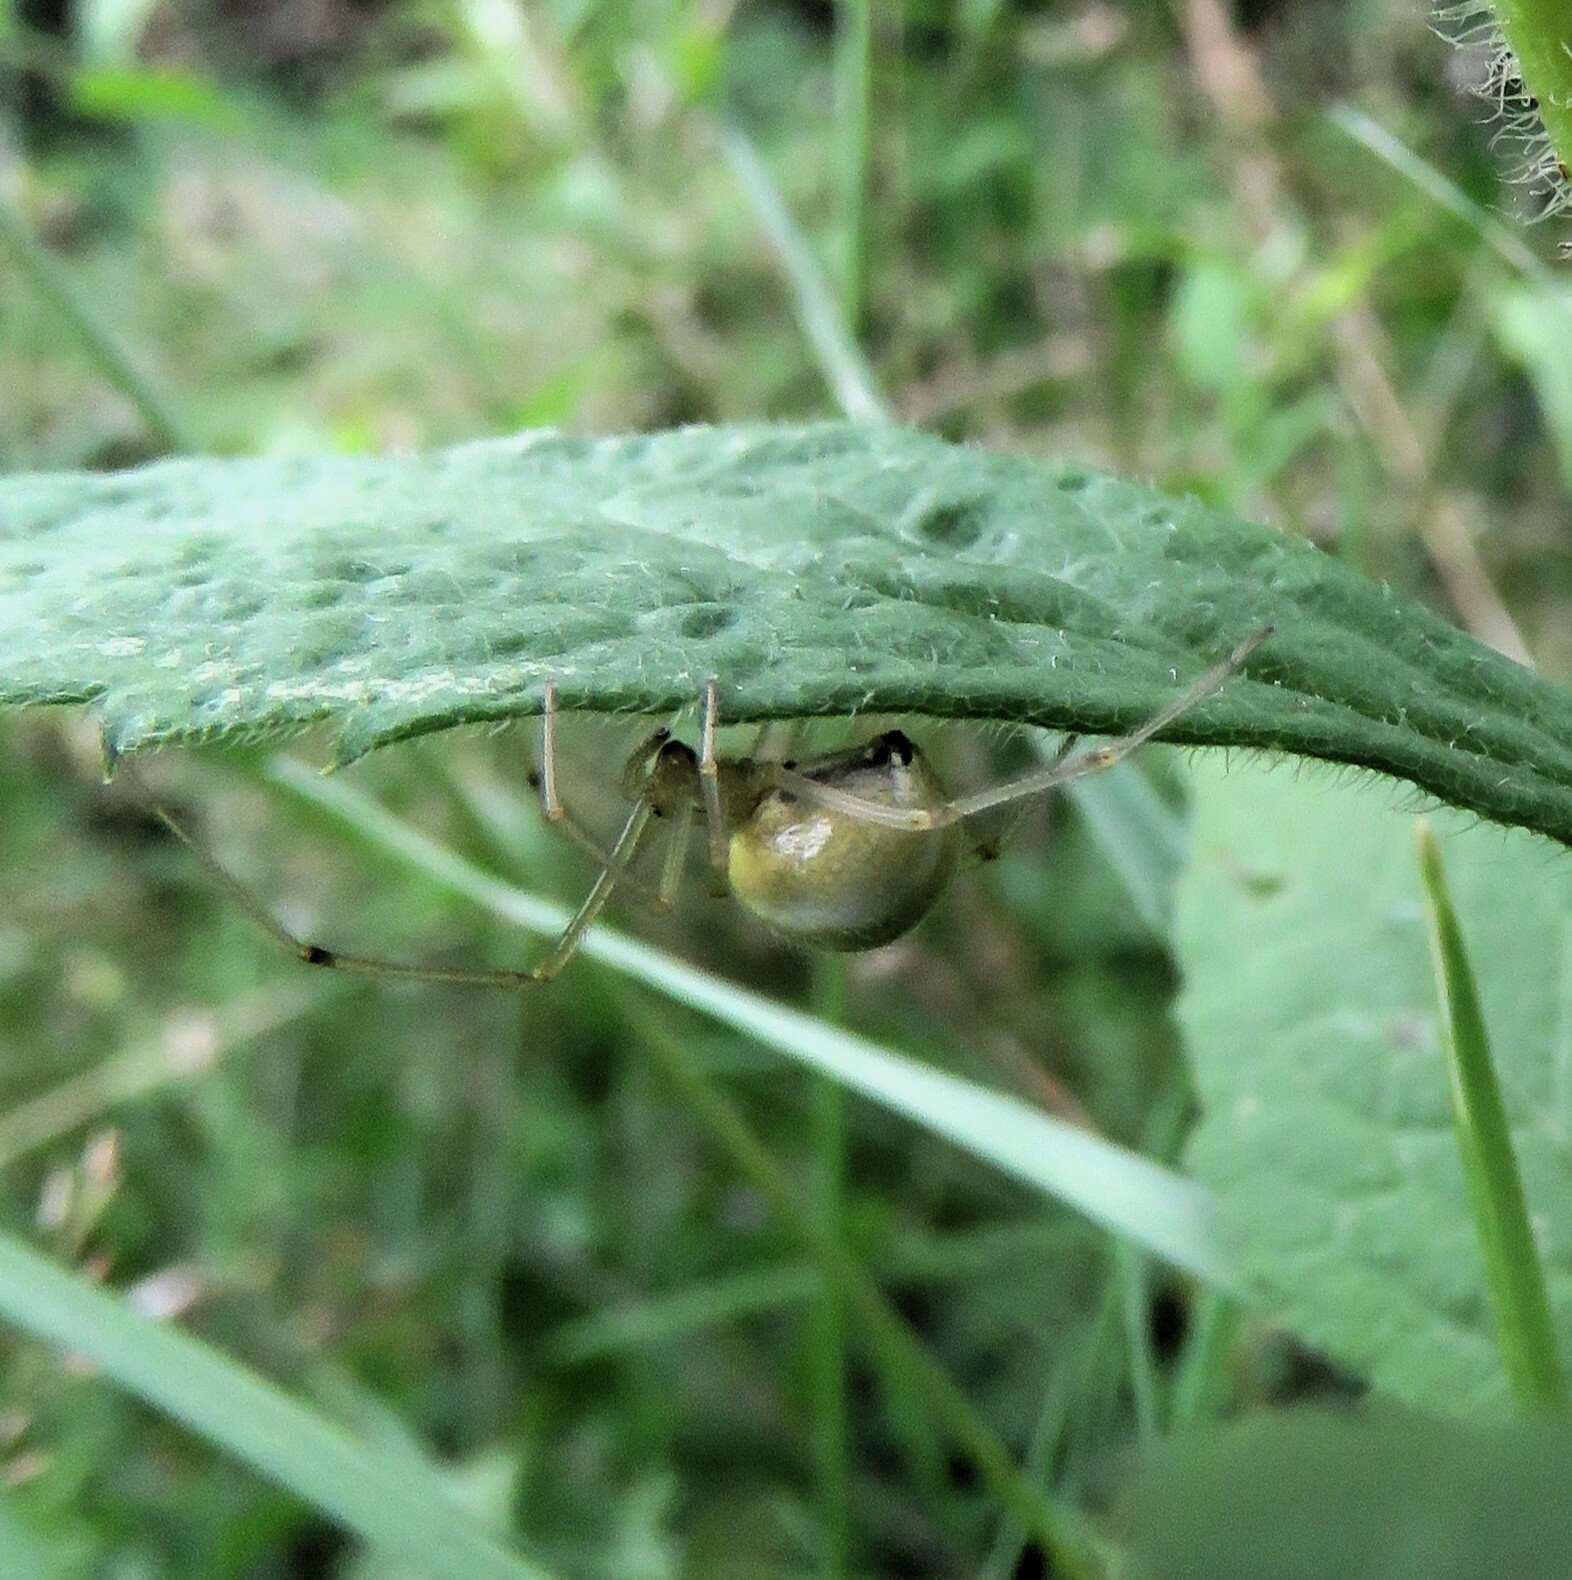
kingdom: Animalia
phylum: Arthropoda
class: Arachnida
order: Araneae
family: Theridiidae
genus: Enoplognatha
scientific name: Enoplognatha ovata
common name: Common candy-striped spider
